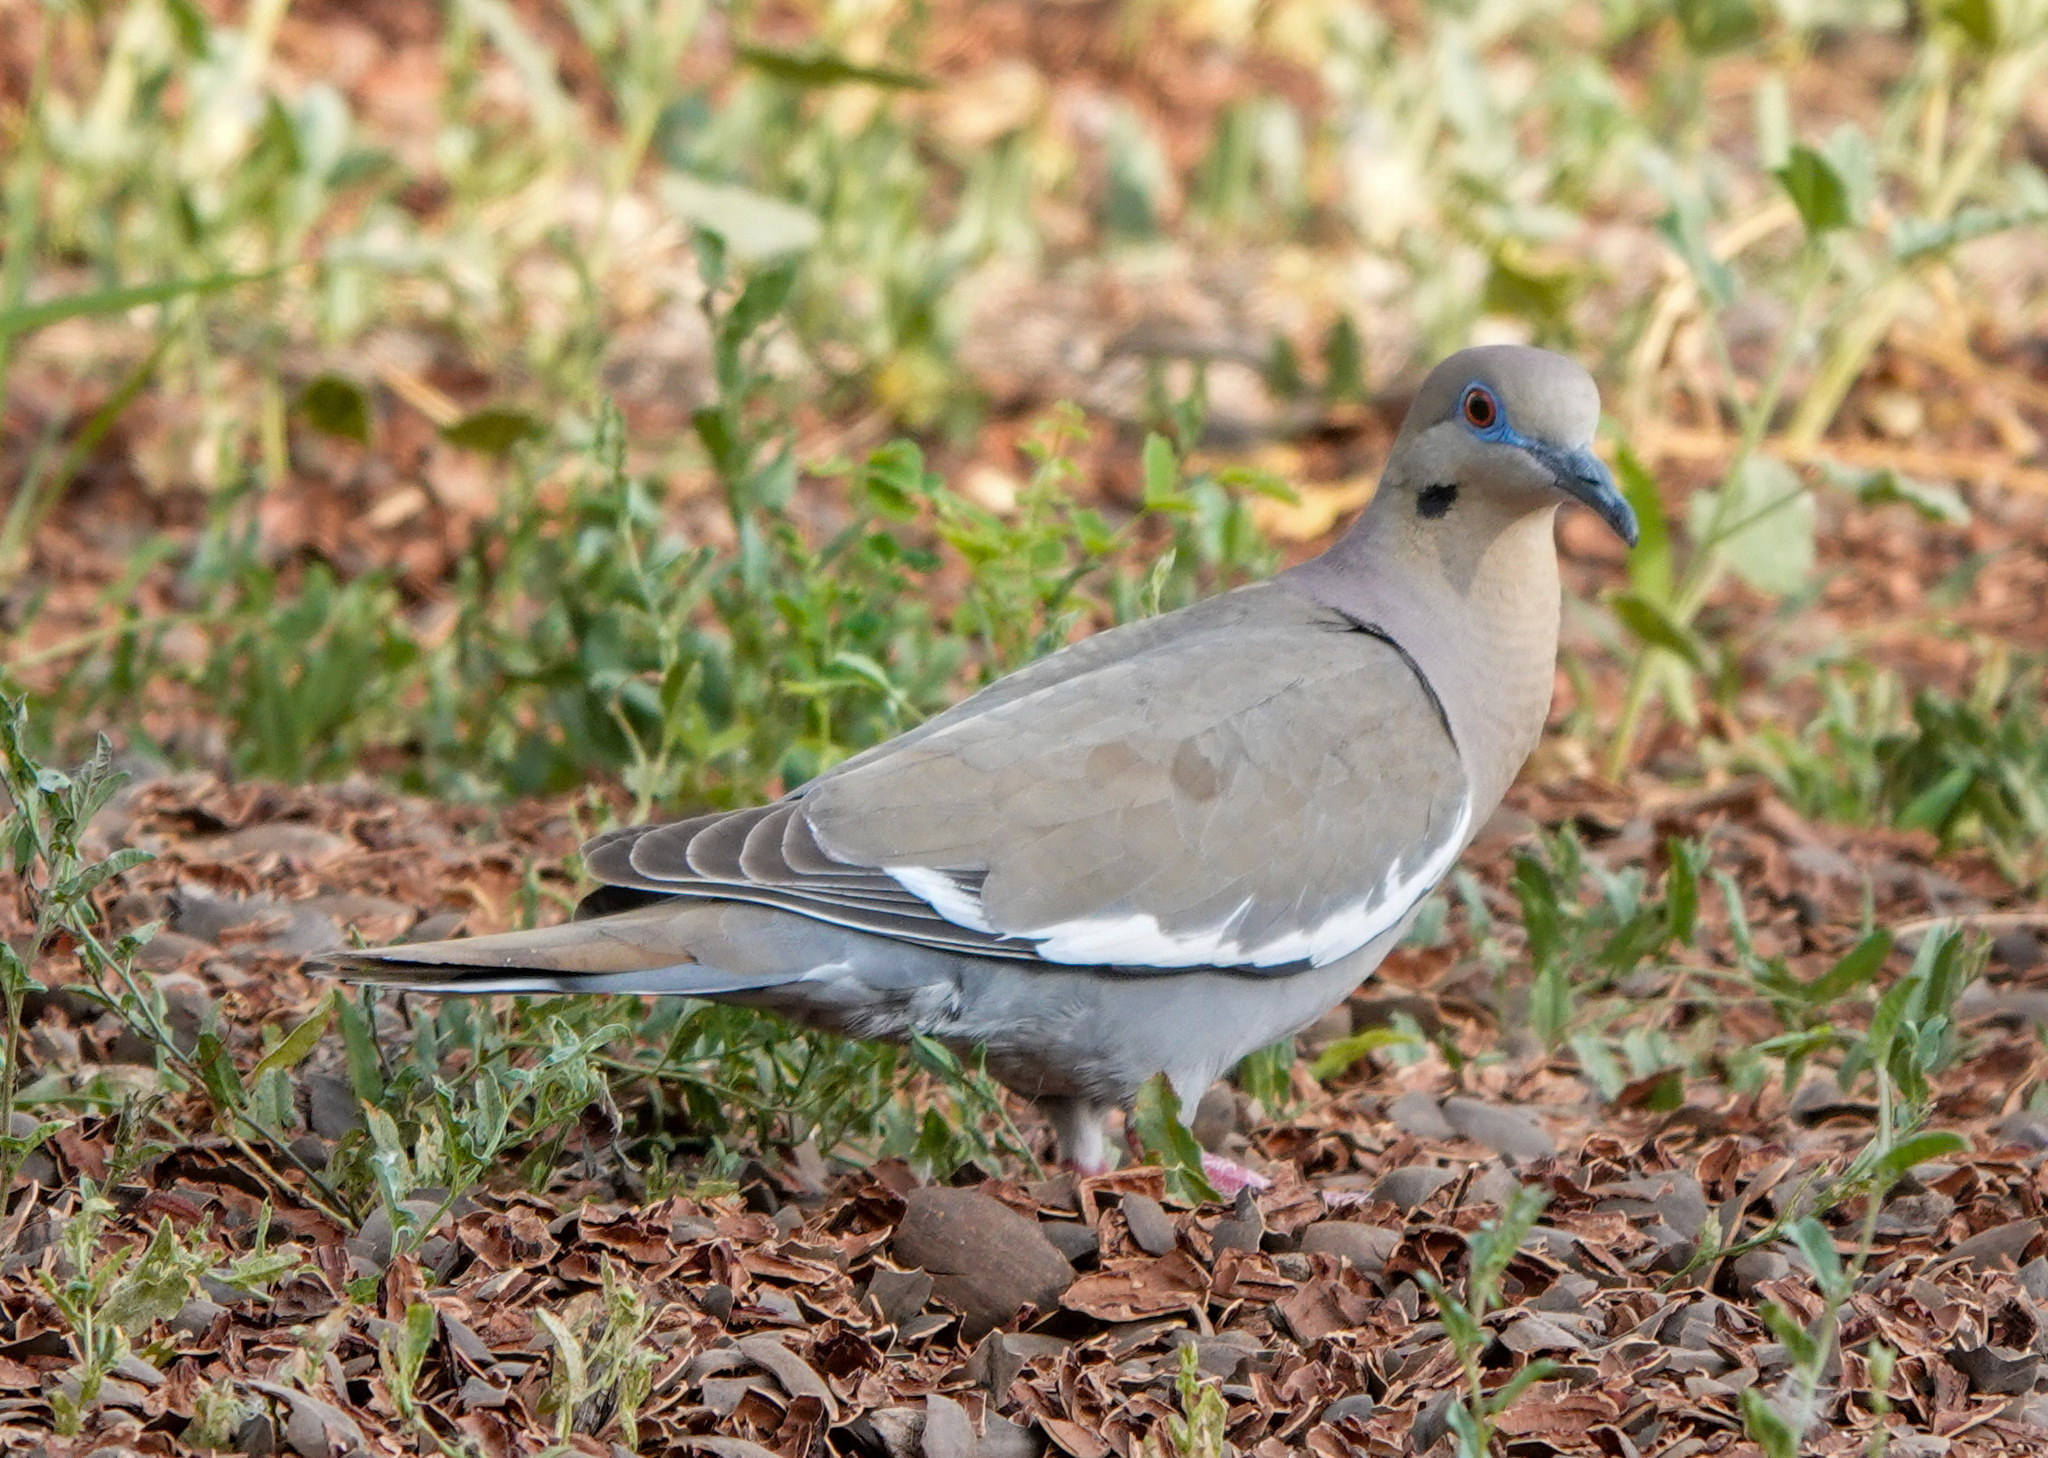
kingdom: Animalia
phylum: Chordata
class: Aves
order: Columbiformes
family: Columbidae
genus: Zenaida
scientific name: Zenaida asiatica
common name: White-winged dove
